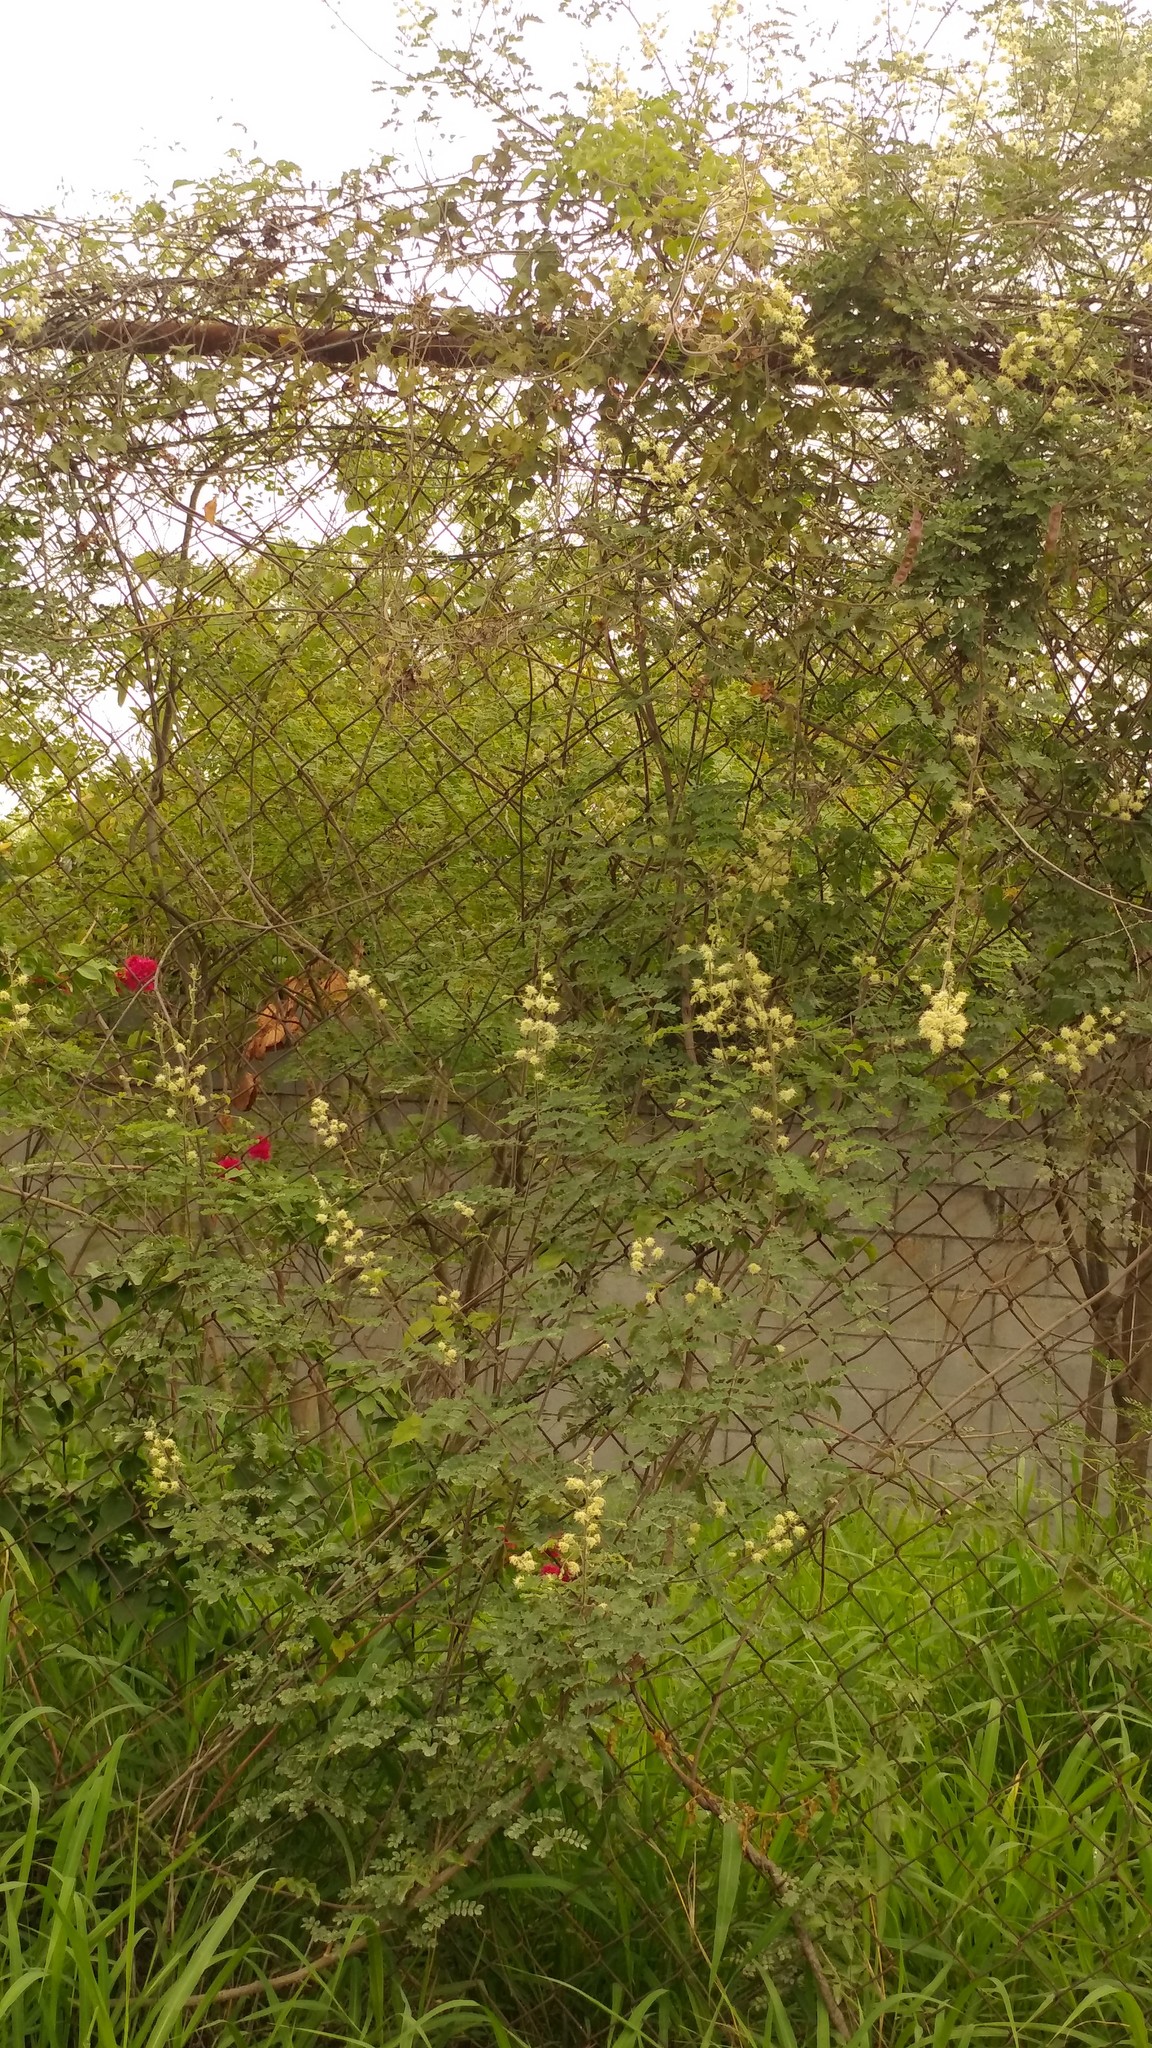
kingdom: Plantae
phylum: Tracheophyta
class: Magnoliopsida
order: Fabales
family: Fabaceae
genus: Mimosa
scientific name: Mimosa malacophylla
